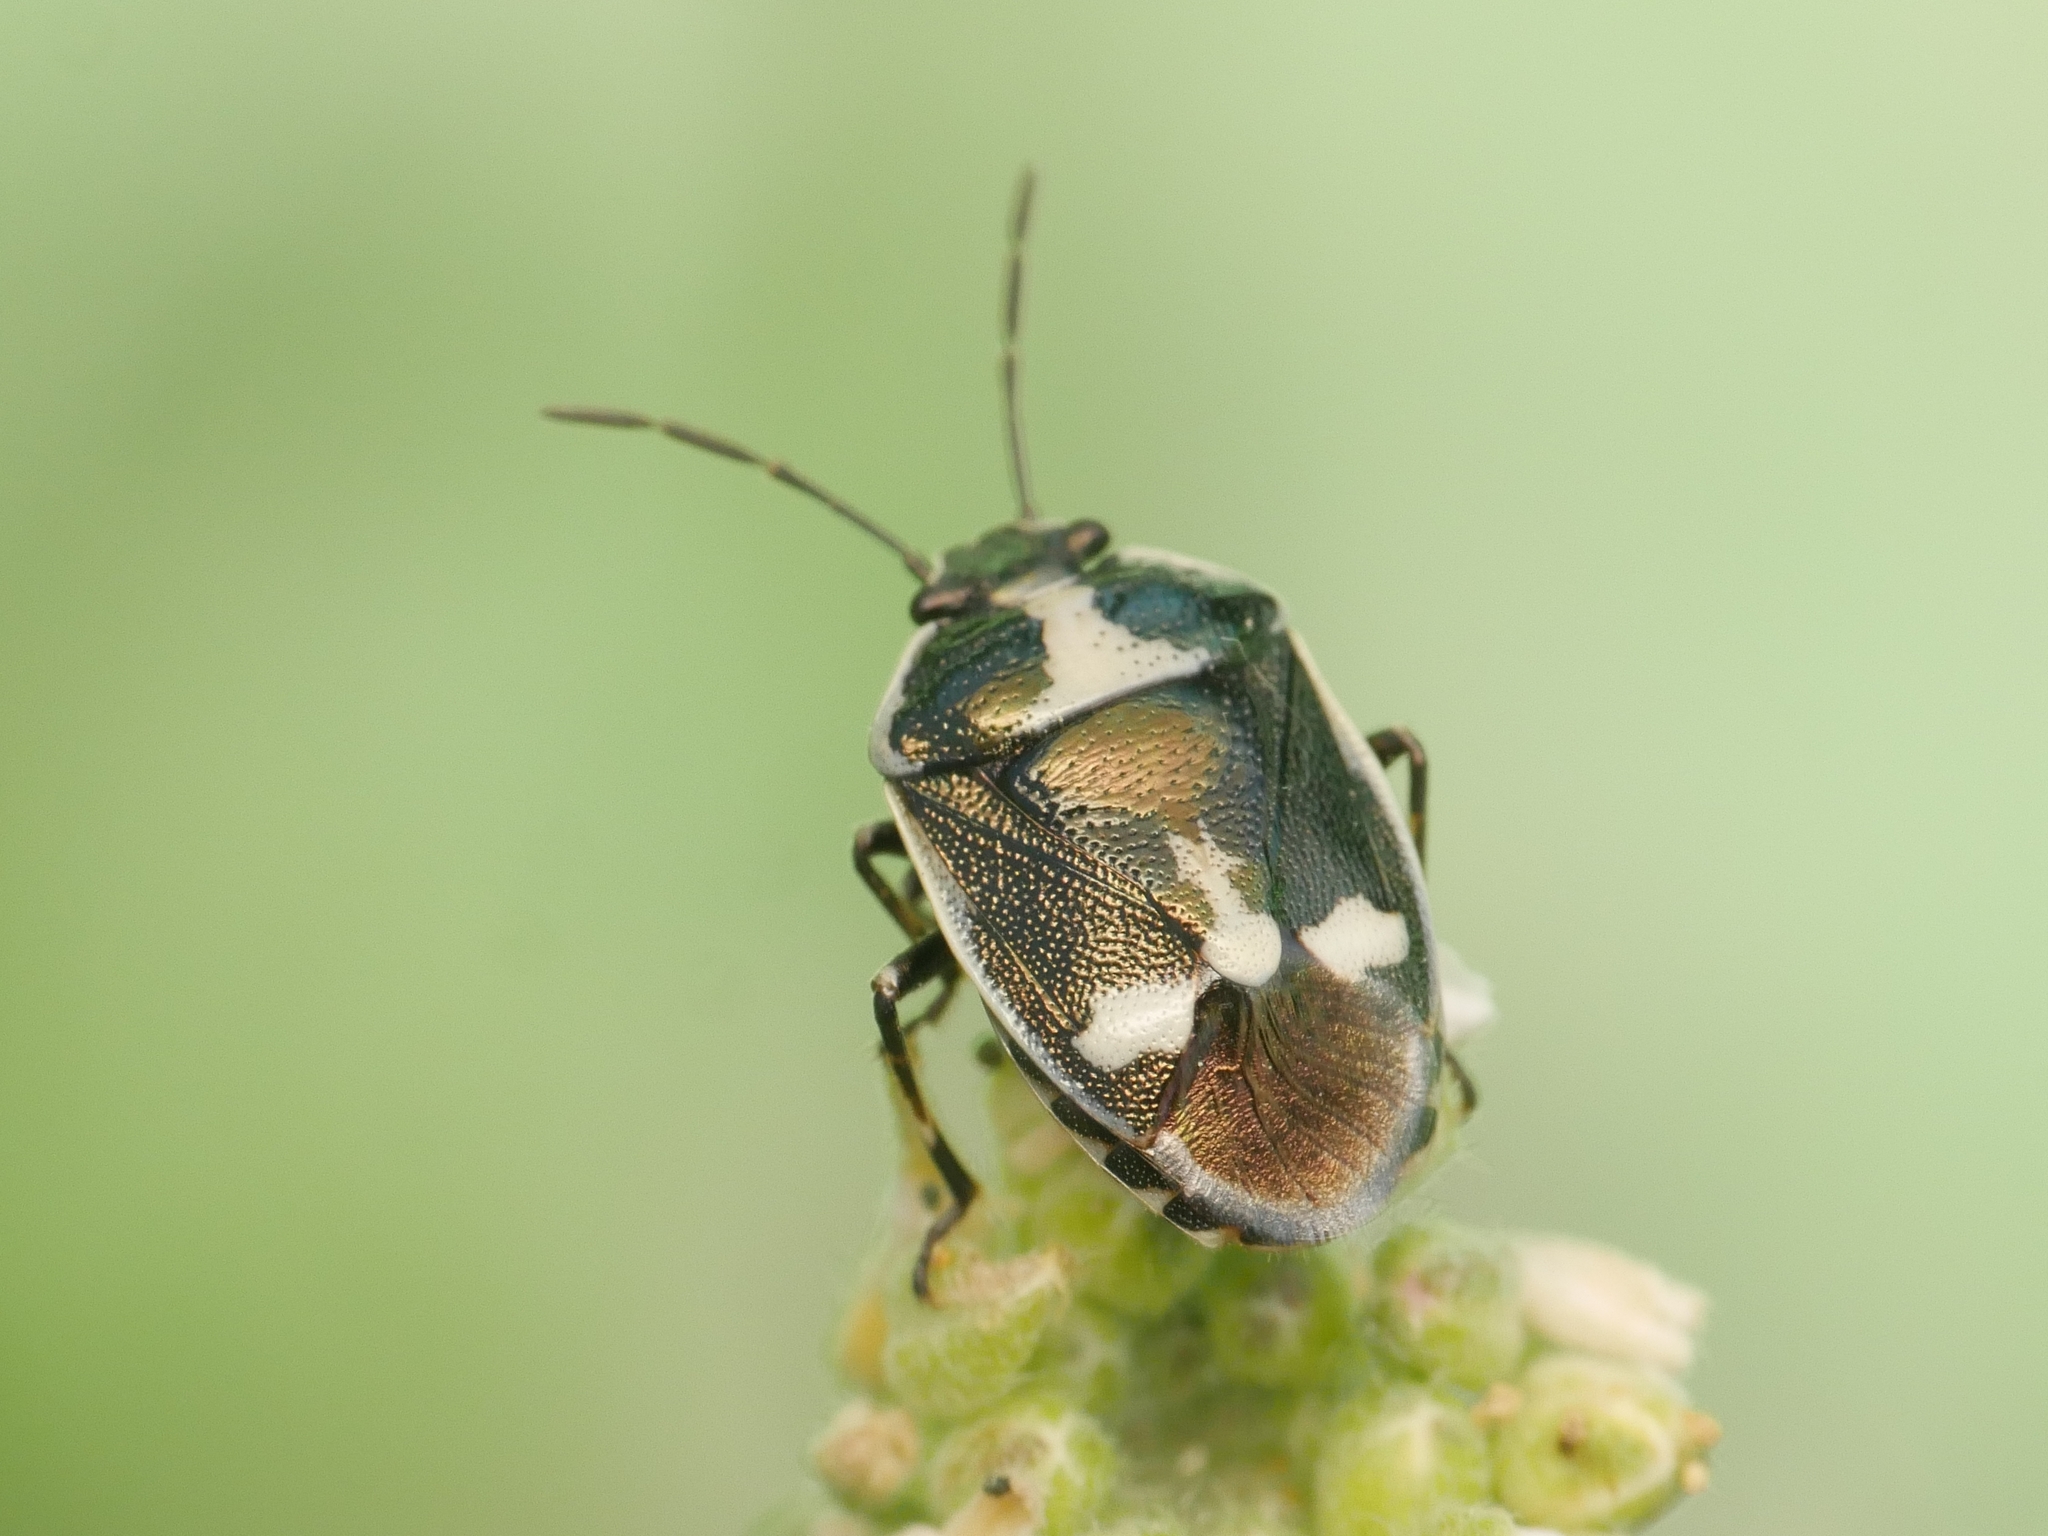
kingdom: Animalia
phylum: Arthropoda
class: Insecta
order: Hemiptera
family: Pentatomidae
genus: Eurydema
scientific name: Eurydema oleracea
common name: Cabbage bug
